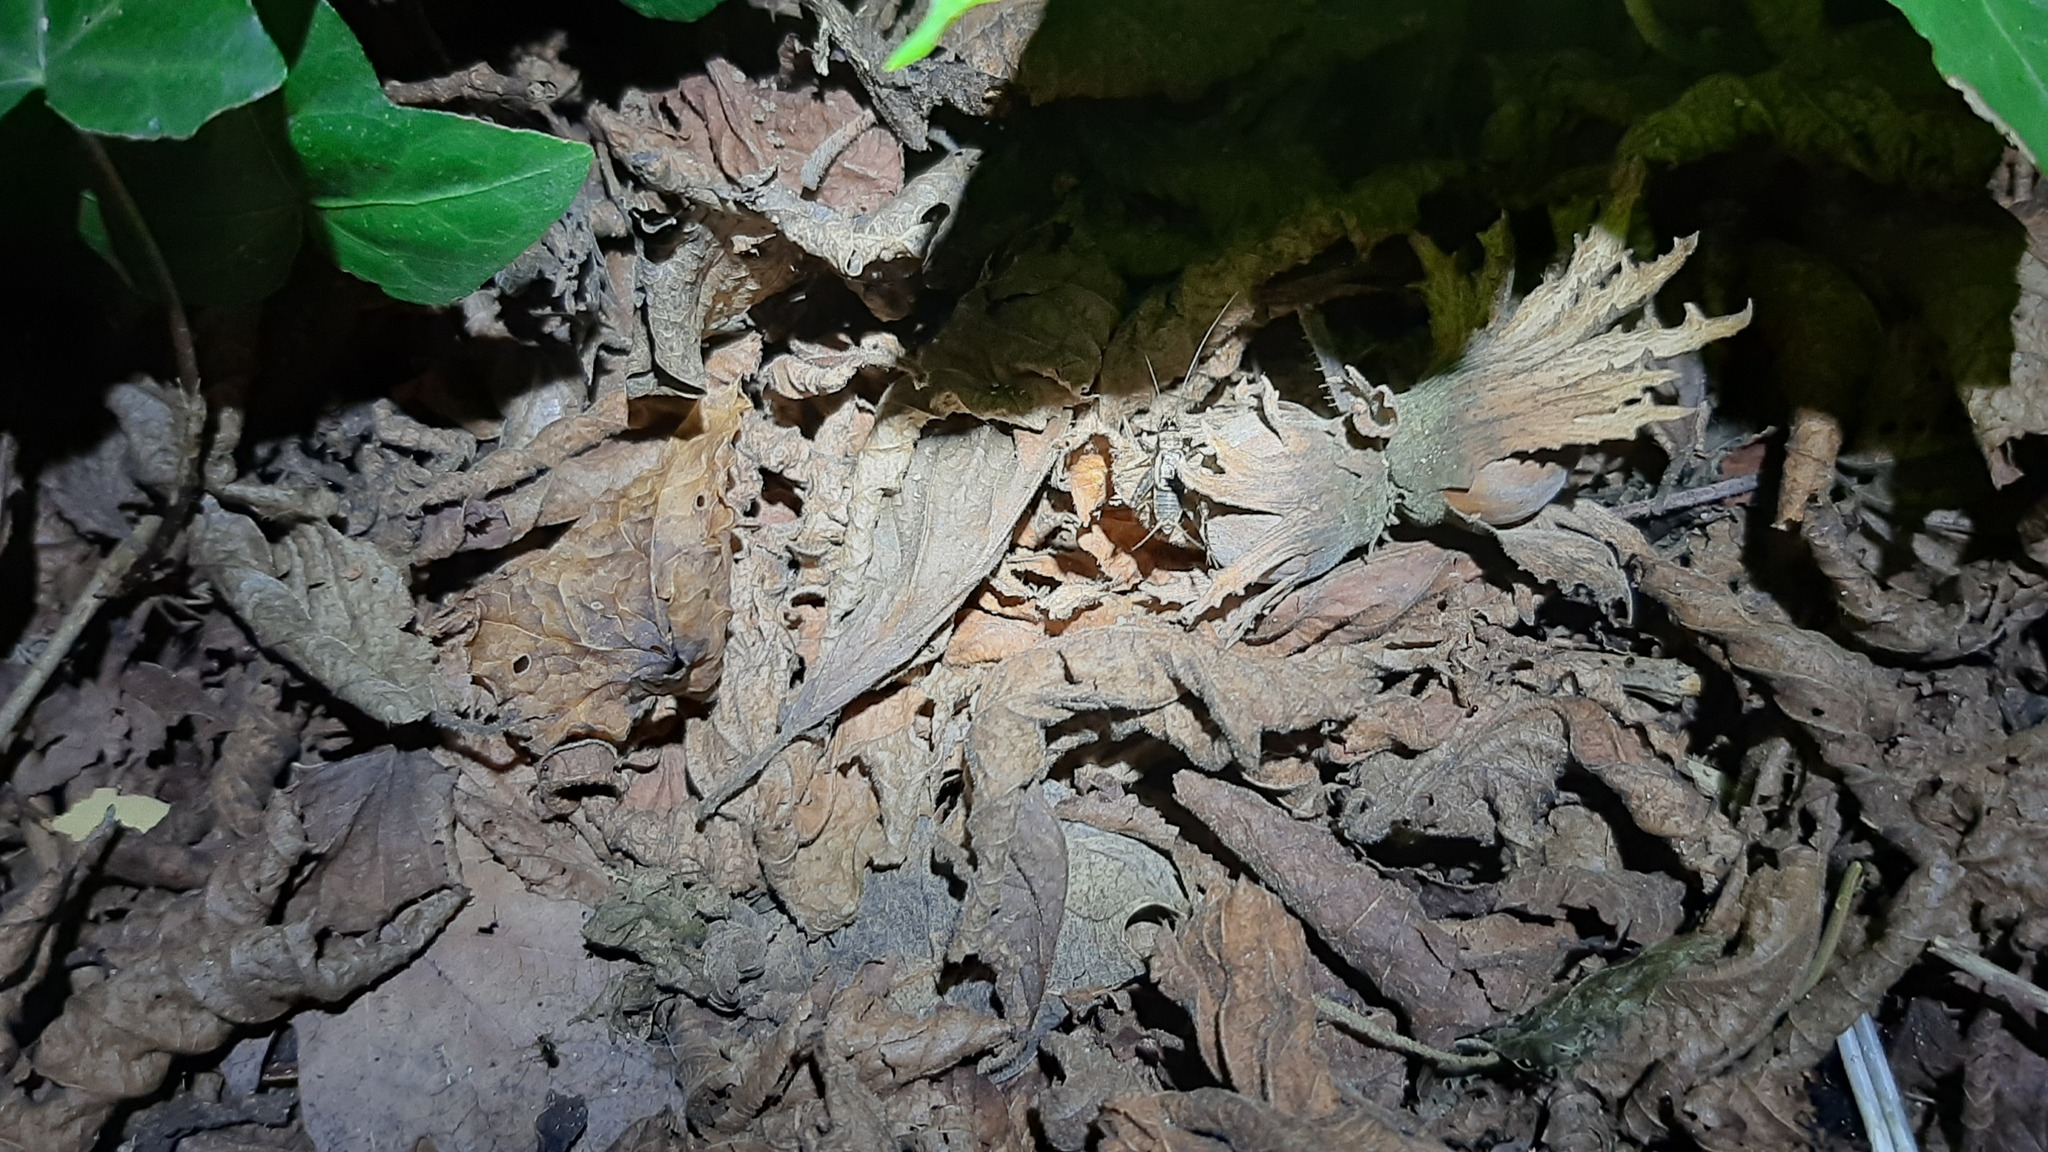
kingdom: Animalia
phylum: Arthropoda
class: Insecta
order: Orthoptera
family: Trigonidiidae
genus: Nemobius
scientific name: Nemobius sylvestris
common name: Wood-cricket
